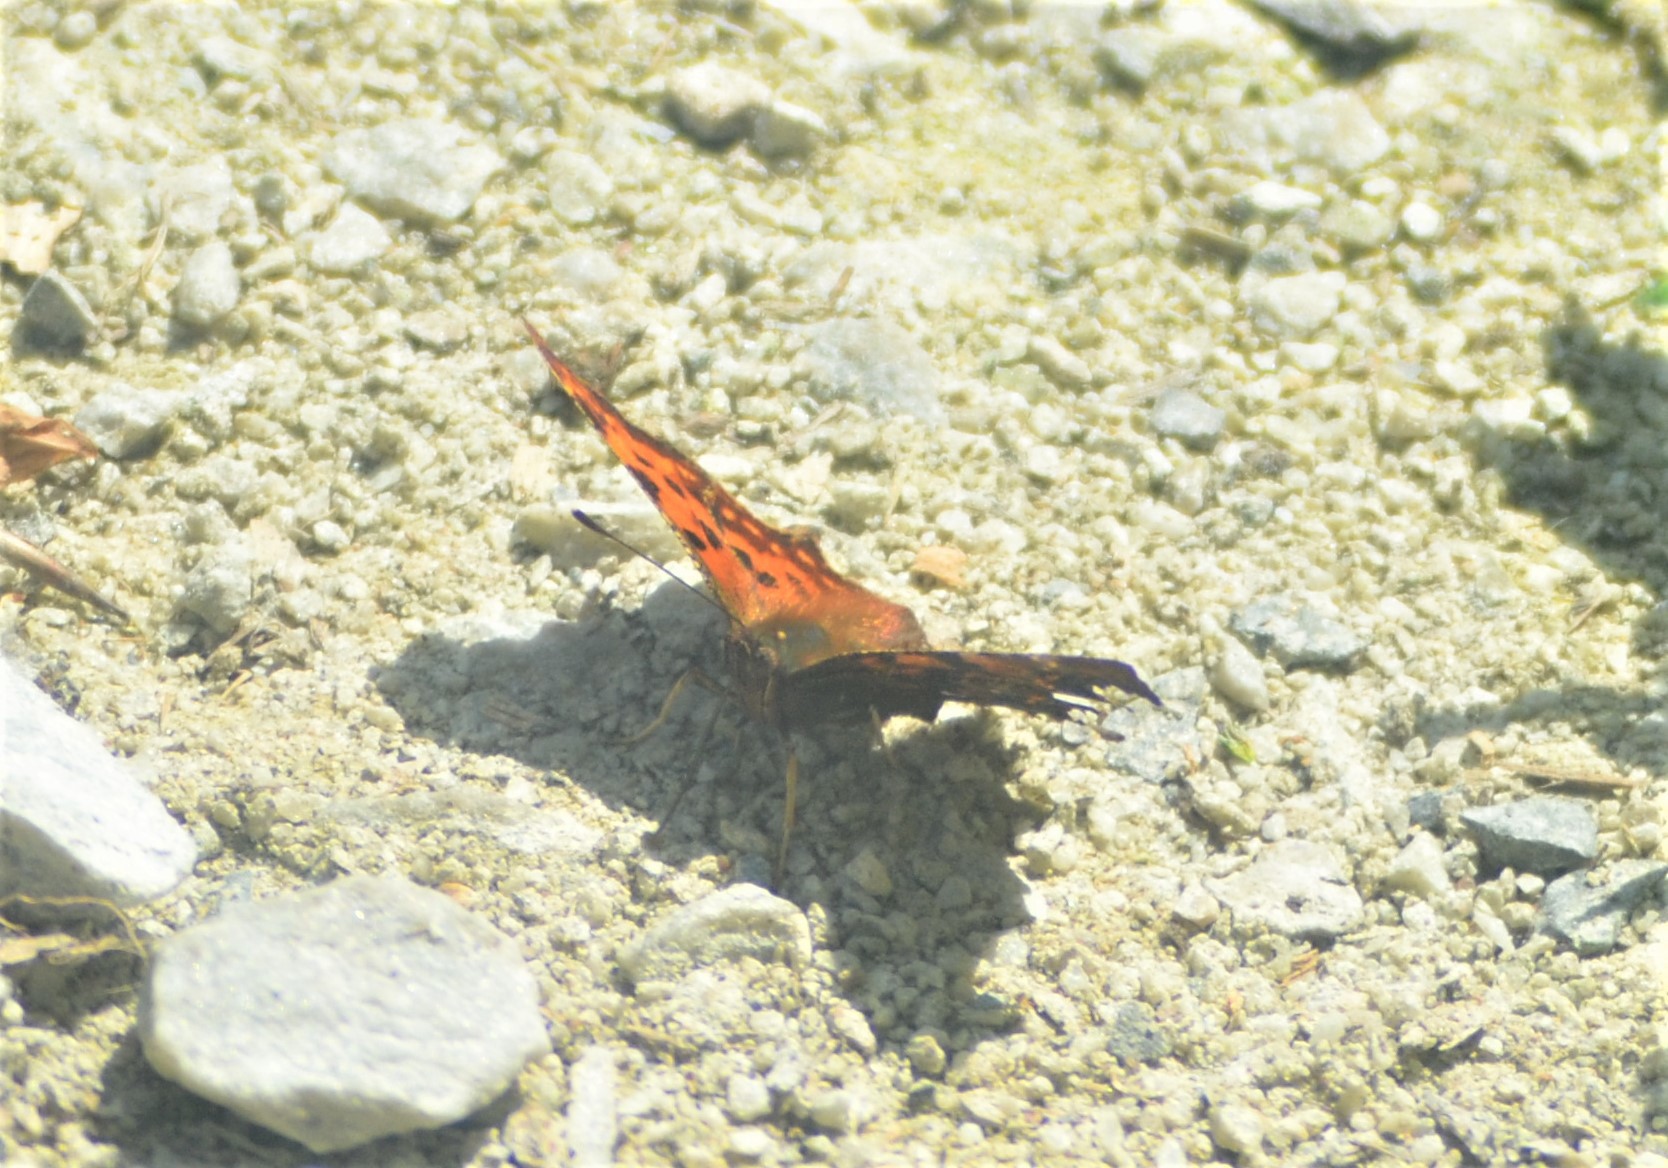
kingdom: Animalia
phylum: Arthropoda
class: Insecta
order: Lepidoptera
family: Nymphalidae
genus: Polygonia
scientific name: Polygonia c-album
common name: Comma
